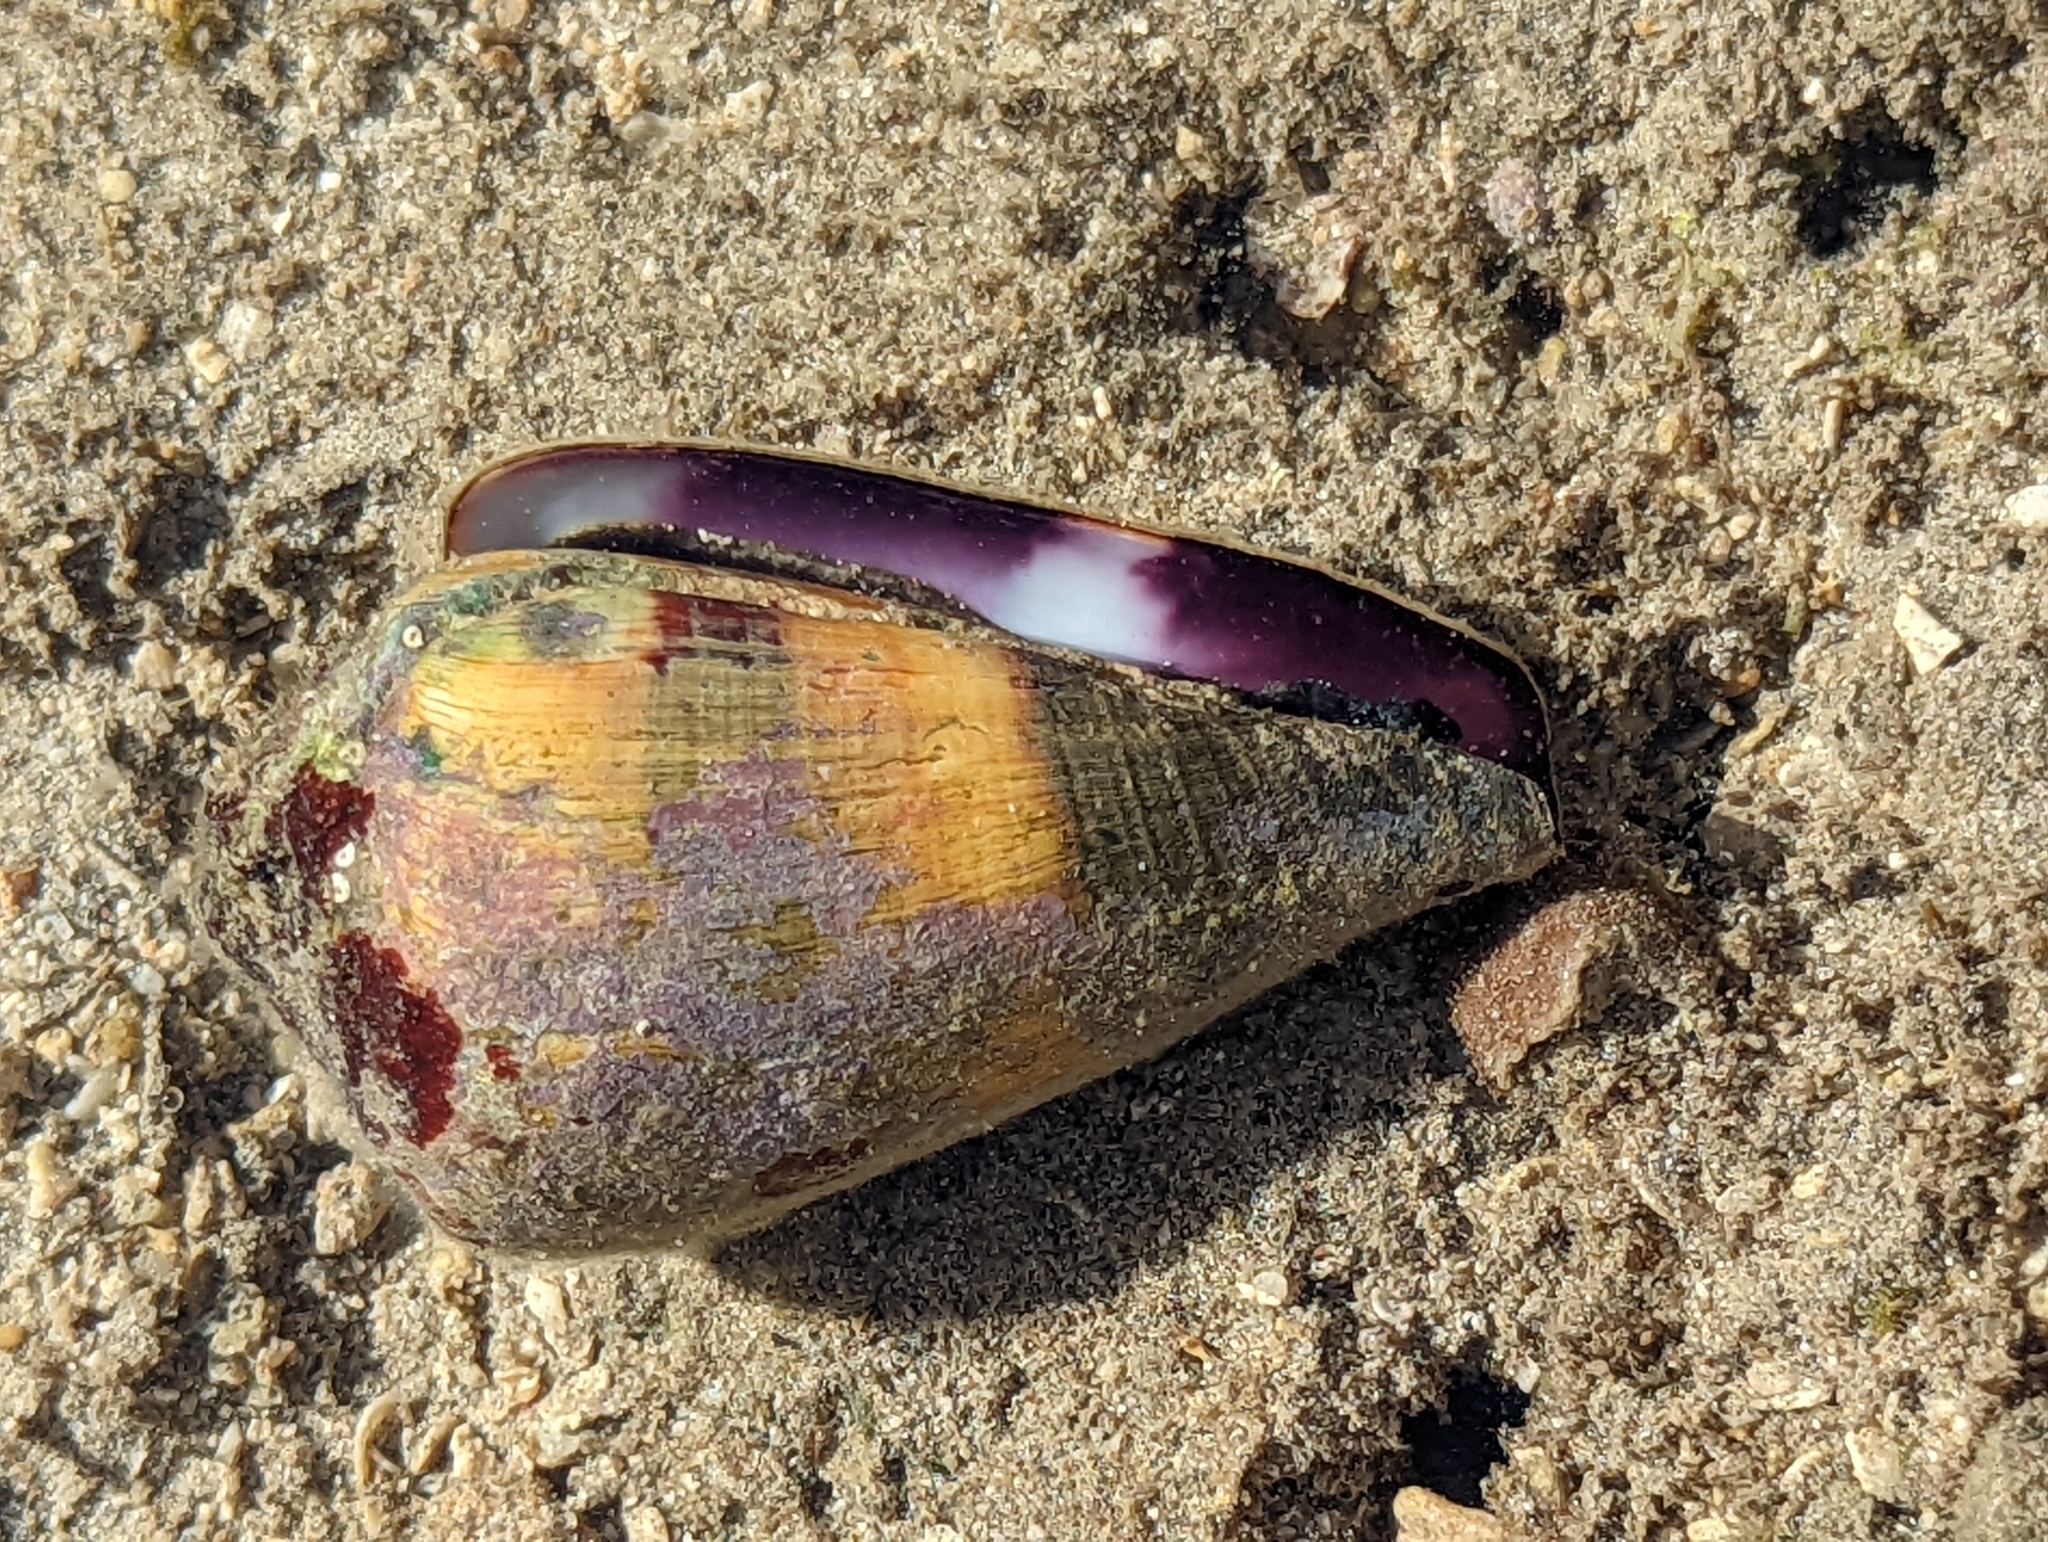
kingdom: Animalia
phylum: Mollusca
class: Gastropoda
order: Neogastropoda
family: Conidae
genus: Conus
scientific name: Conus miles
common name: Soldier cone
